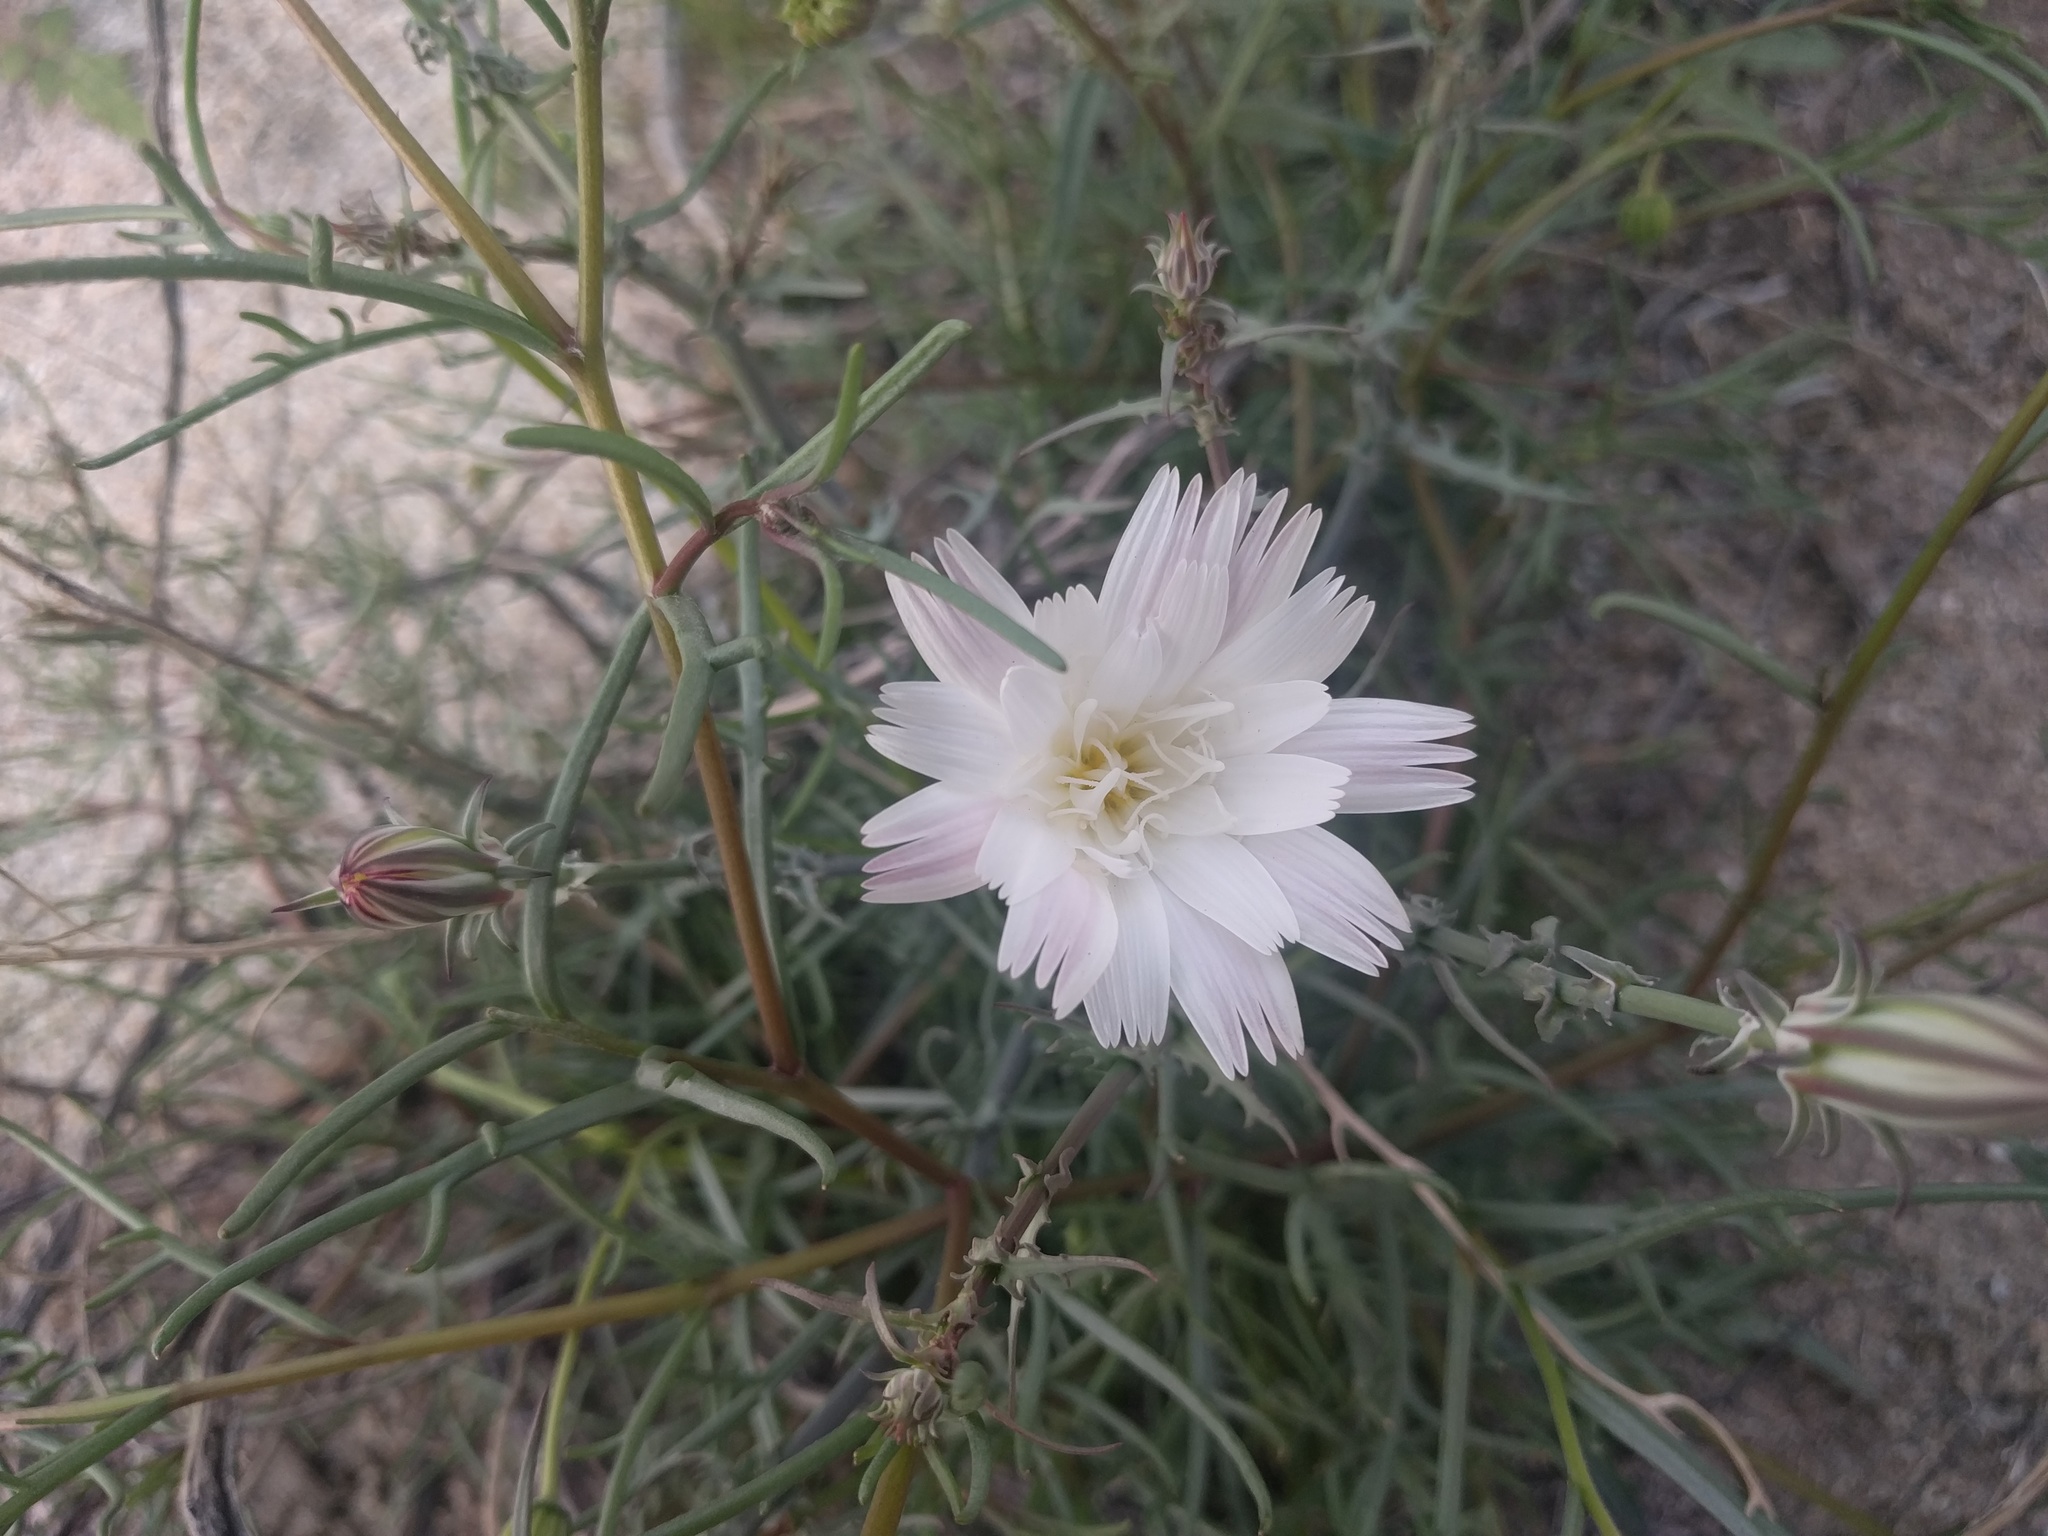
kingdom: Plantae
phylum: Tracheophyta
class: Magnoliopsida
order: Asterales
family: Asteraceae
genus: Rafinesquia
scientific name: Rafinesquia neomexicana
